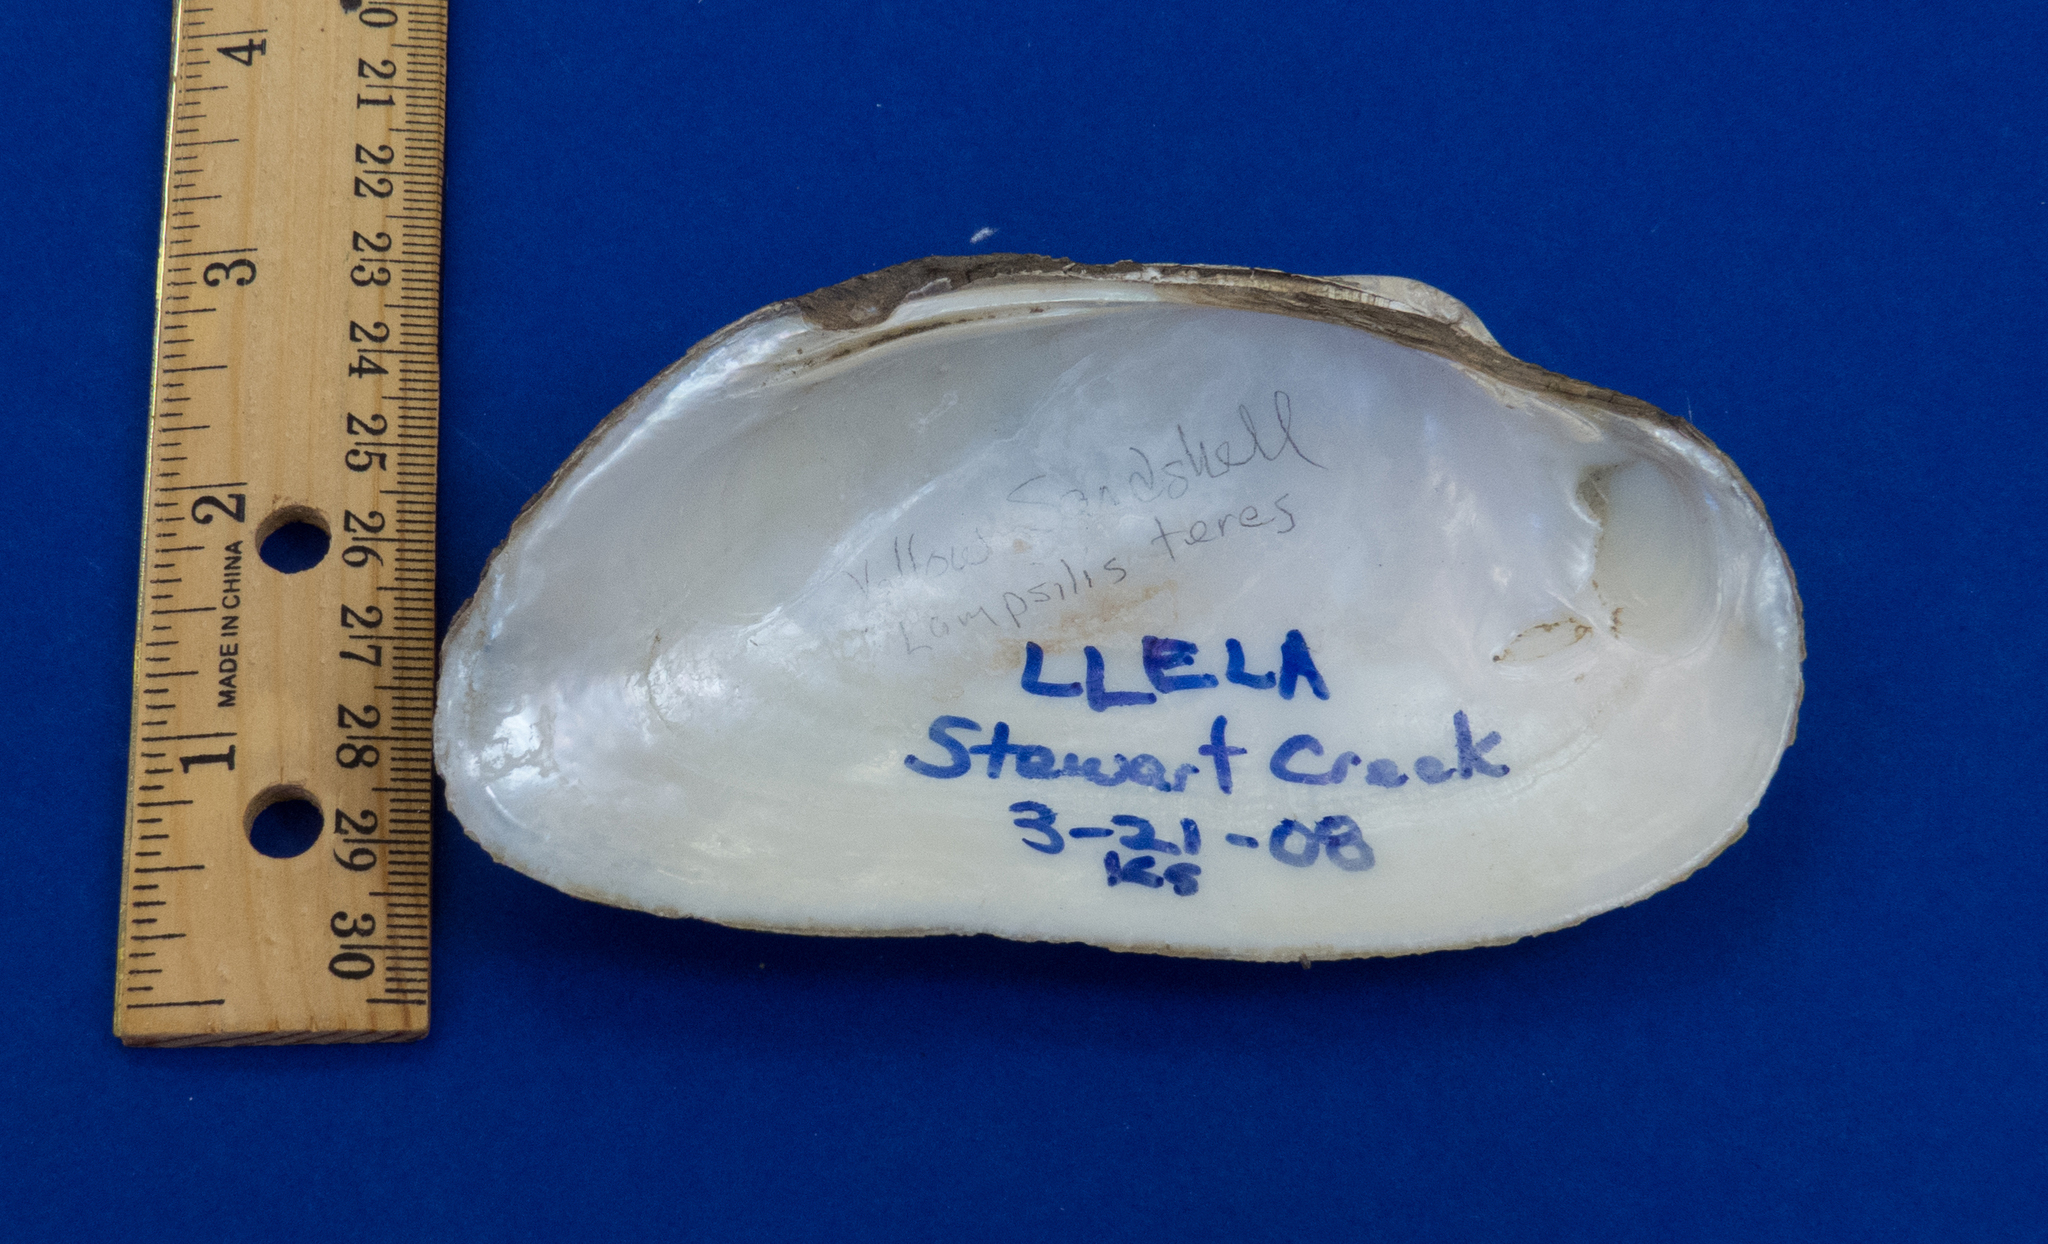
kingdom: Animalia
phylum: Mollusca
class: Bivalvia
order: Unionida
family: Unionidae
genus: Uniomerus
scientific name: Uniomerus tetralasmus
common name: Pondhorn
